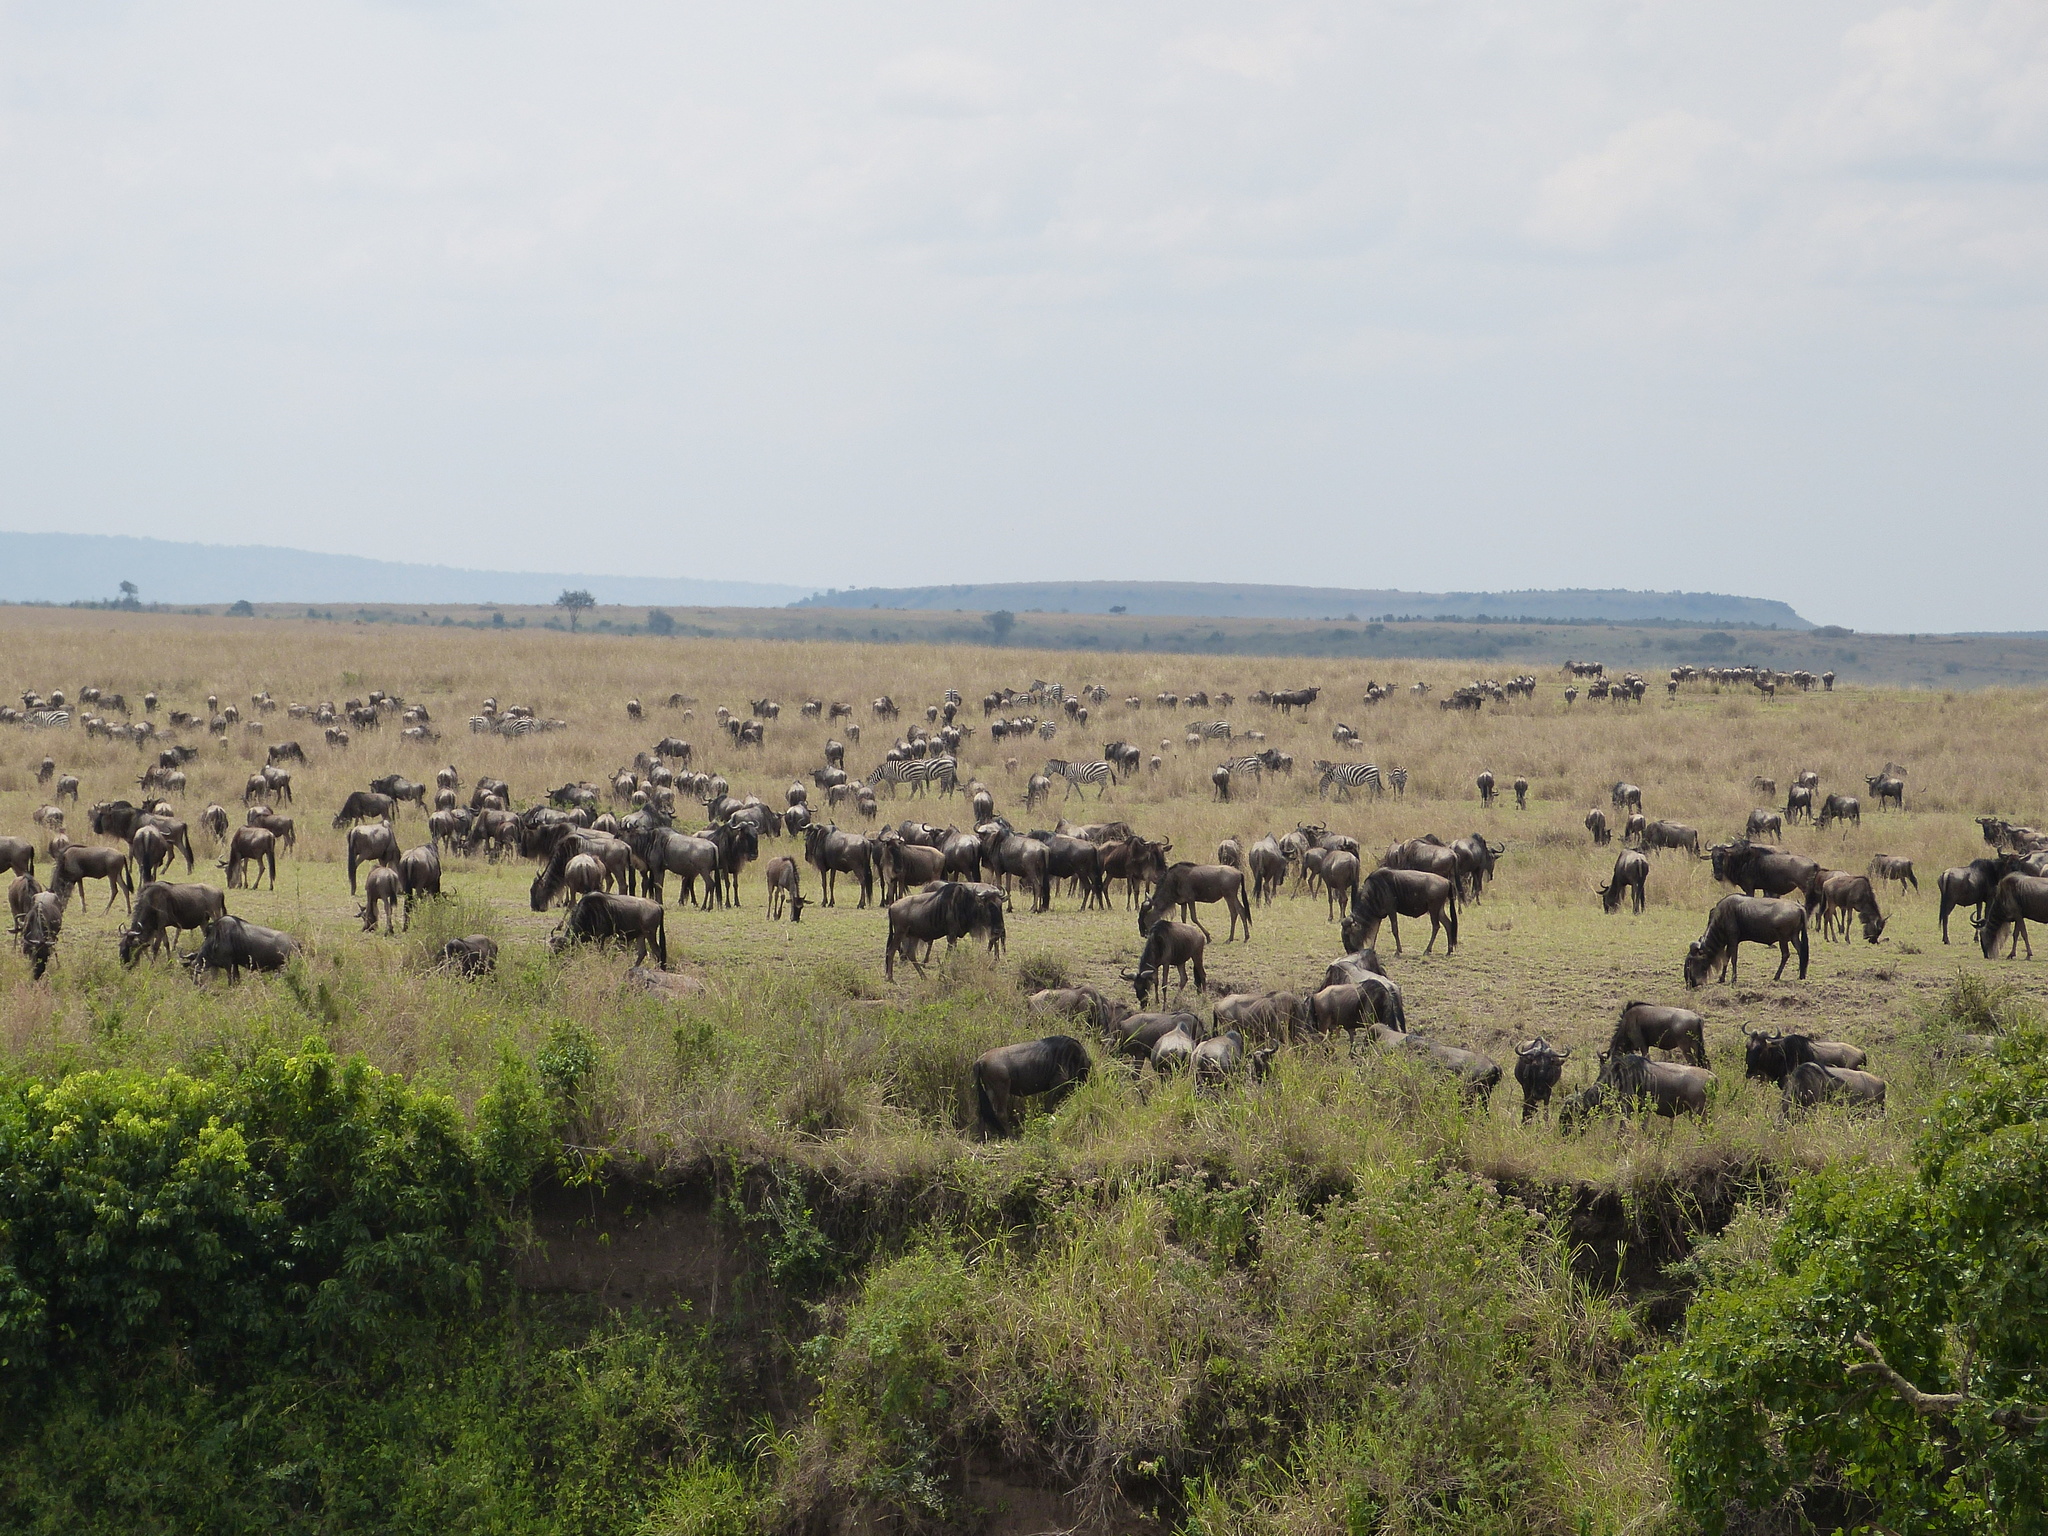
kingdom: Animalia
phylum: Chordata
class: Mammalia
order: Artiodactyla
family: Bovidae
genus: Connochaetes
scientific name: Connochaetes taurinus
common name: Blue wildebeest
